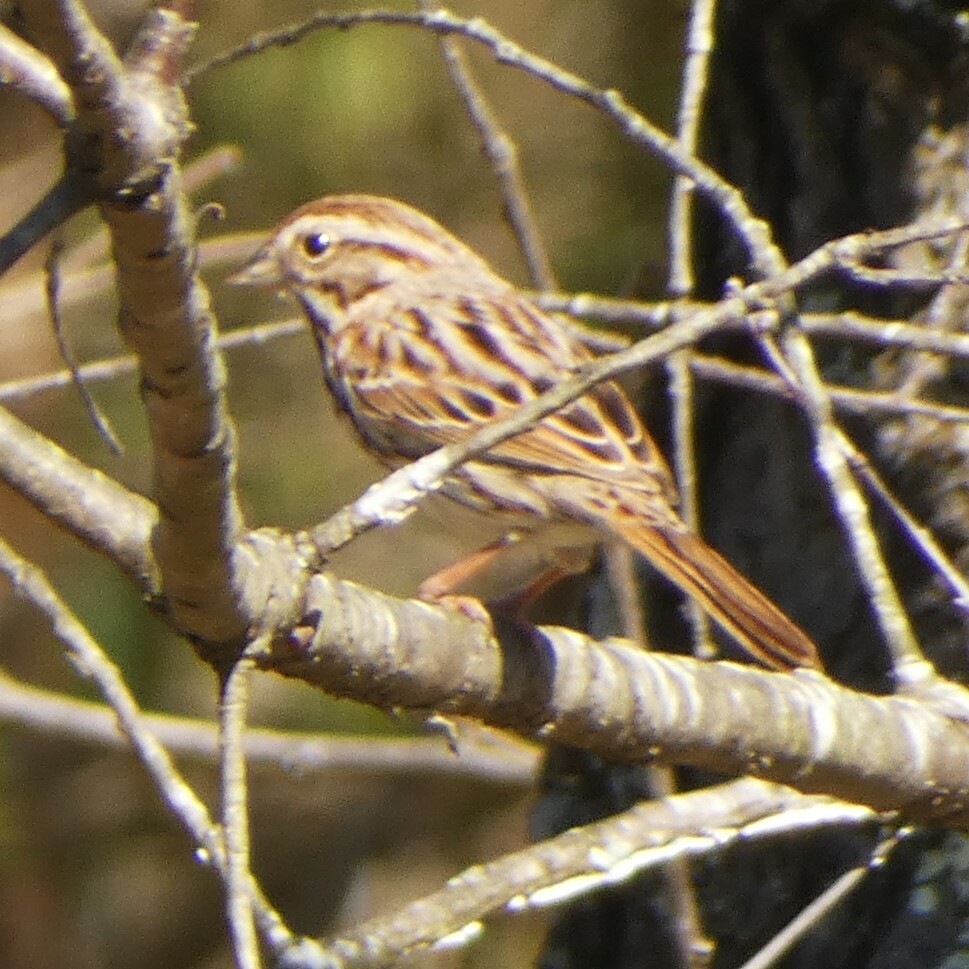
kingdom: Animalia
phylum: Chordata
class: Aves
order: Passeriformes
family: Passerellidae
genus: Melospiza
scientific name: Melospiza melodia
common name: Song sparrow
